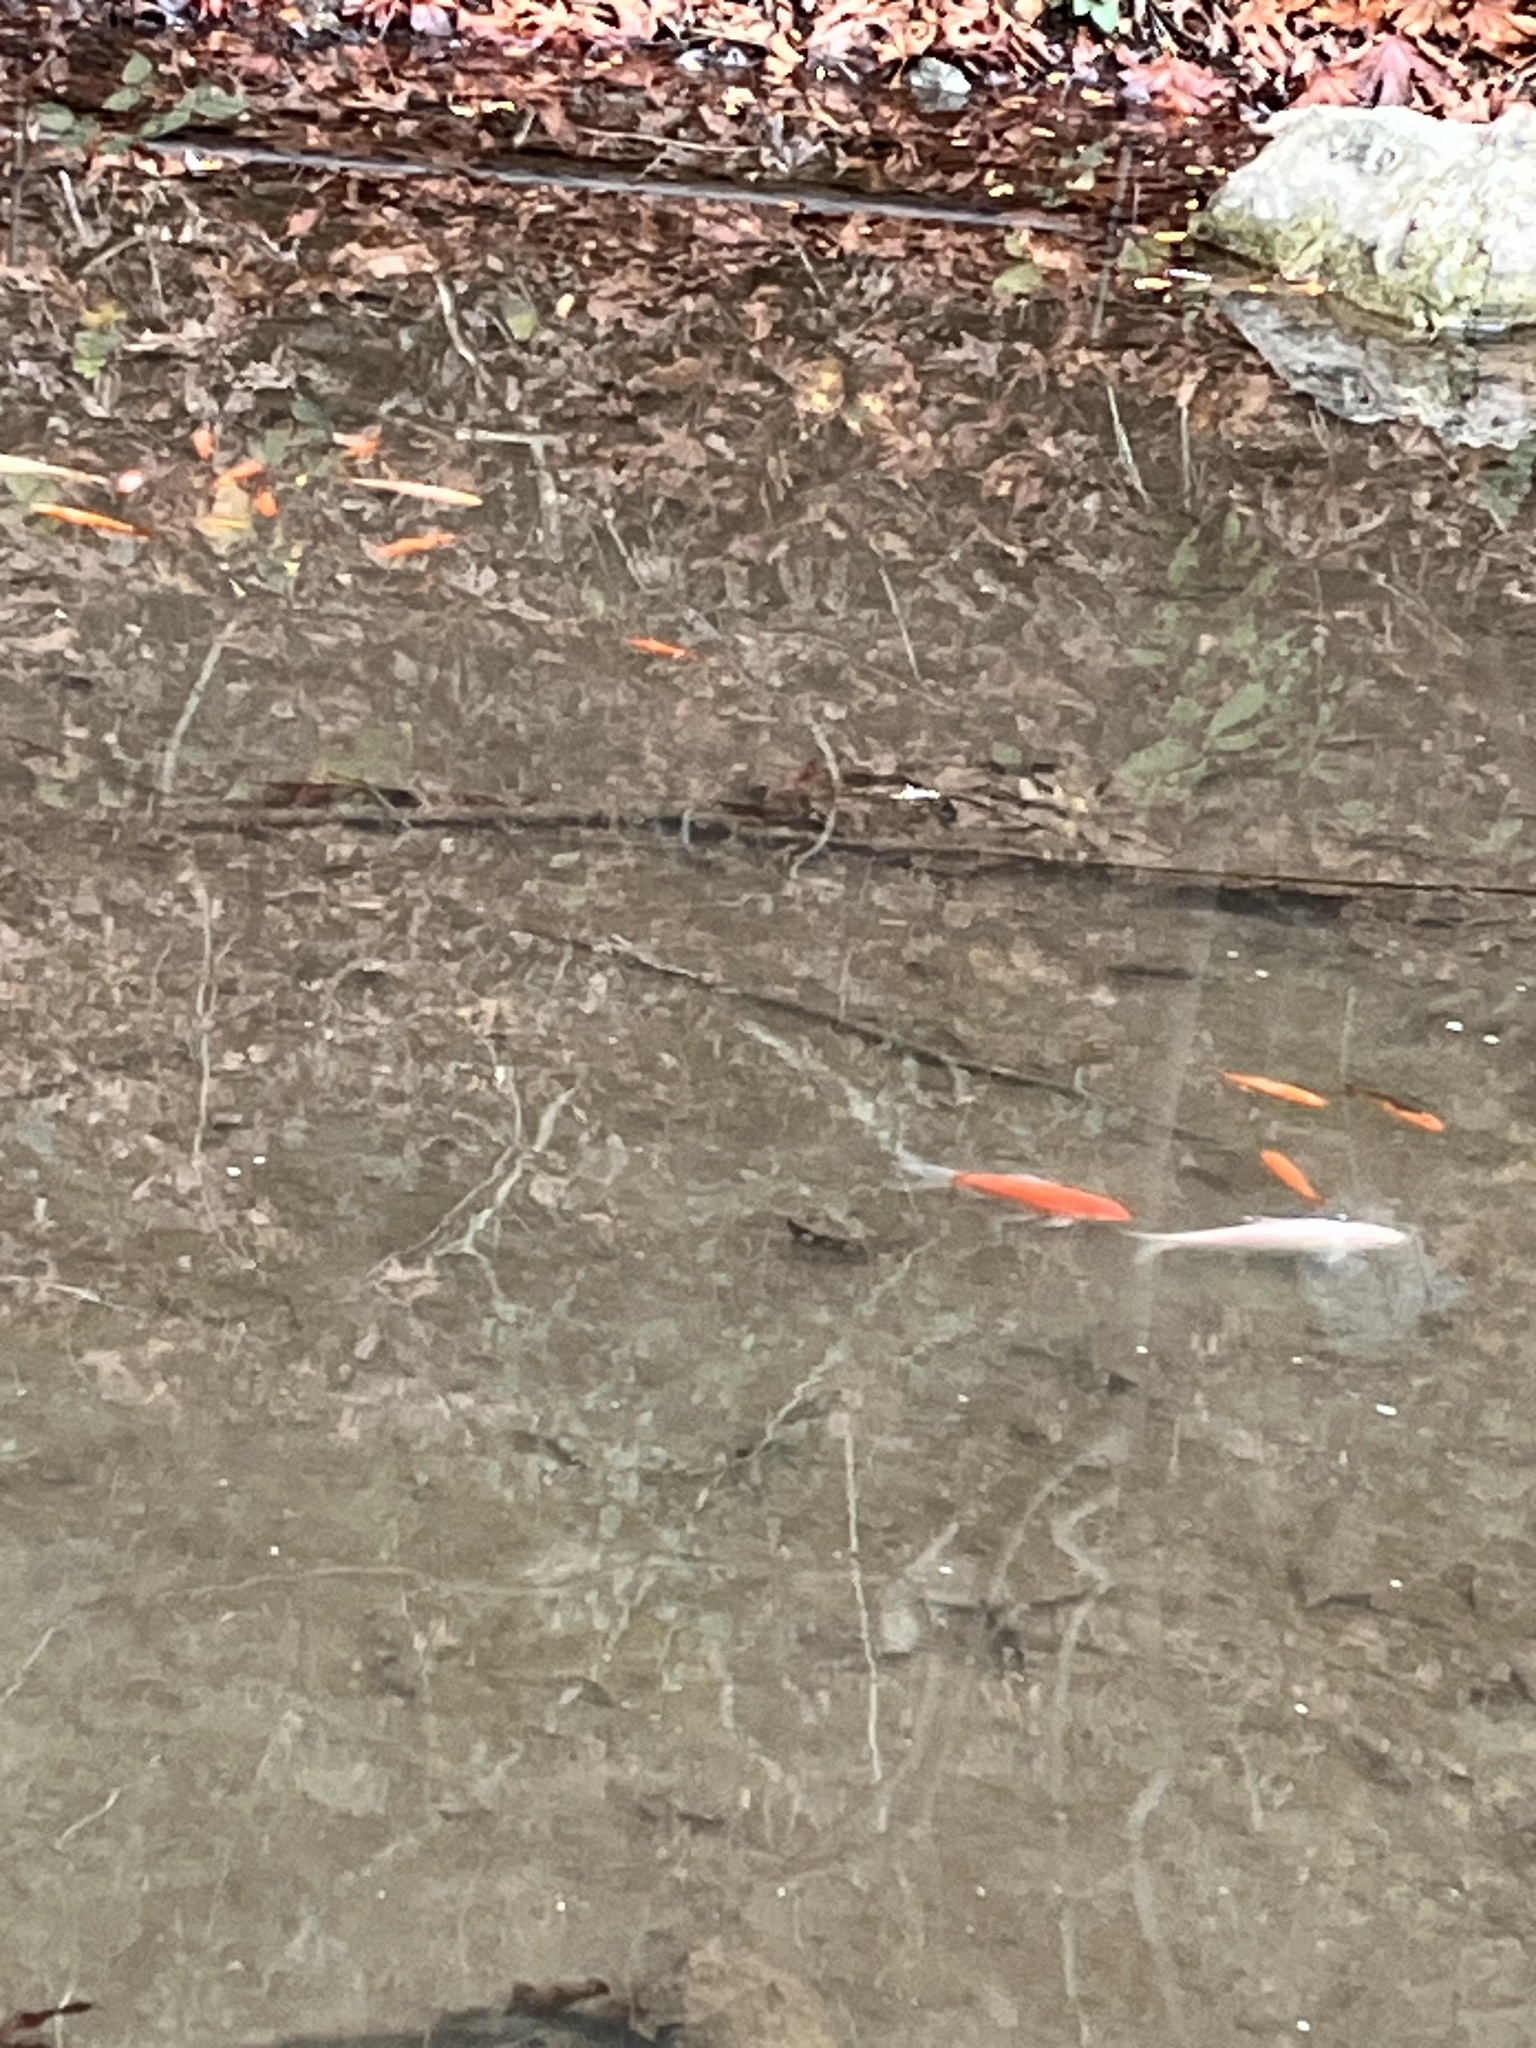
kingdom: Animalia
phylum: Chordata
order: Cypriniformes
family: Cyprinidae
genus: Carassius
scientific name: Carassius auratus
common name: Goldfish
